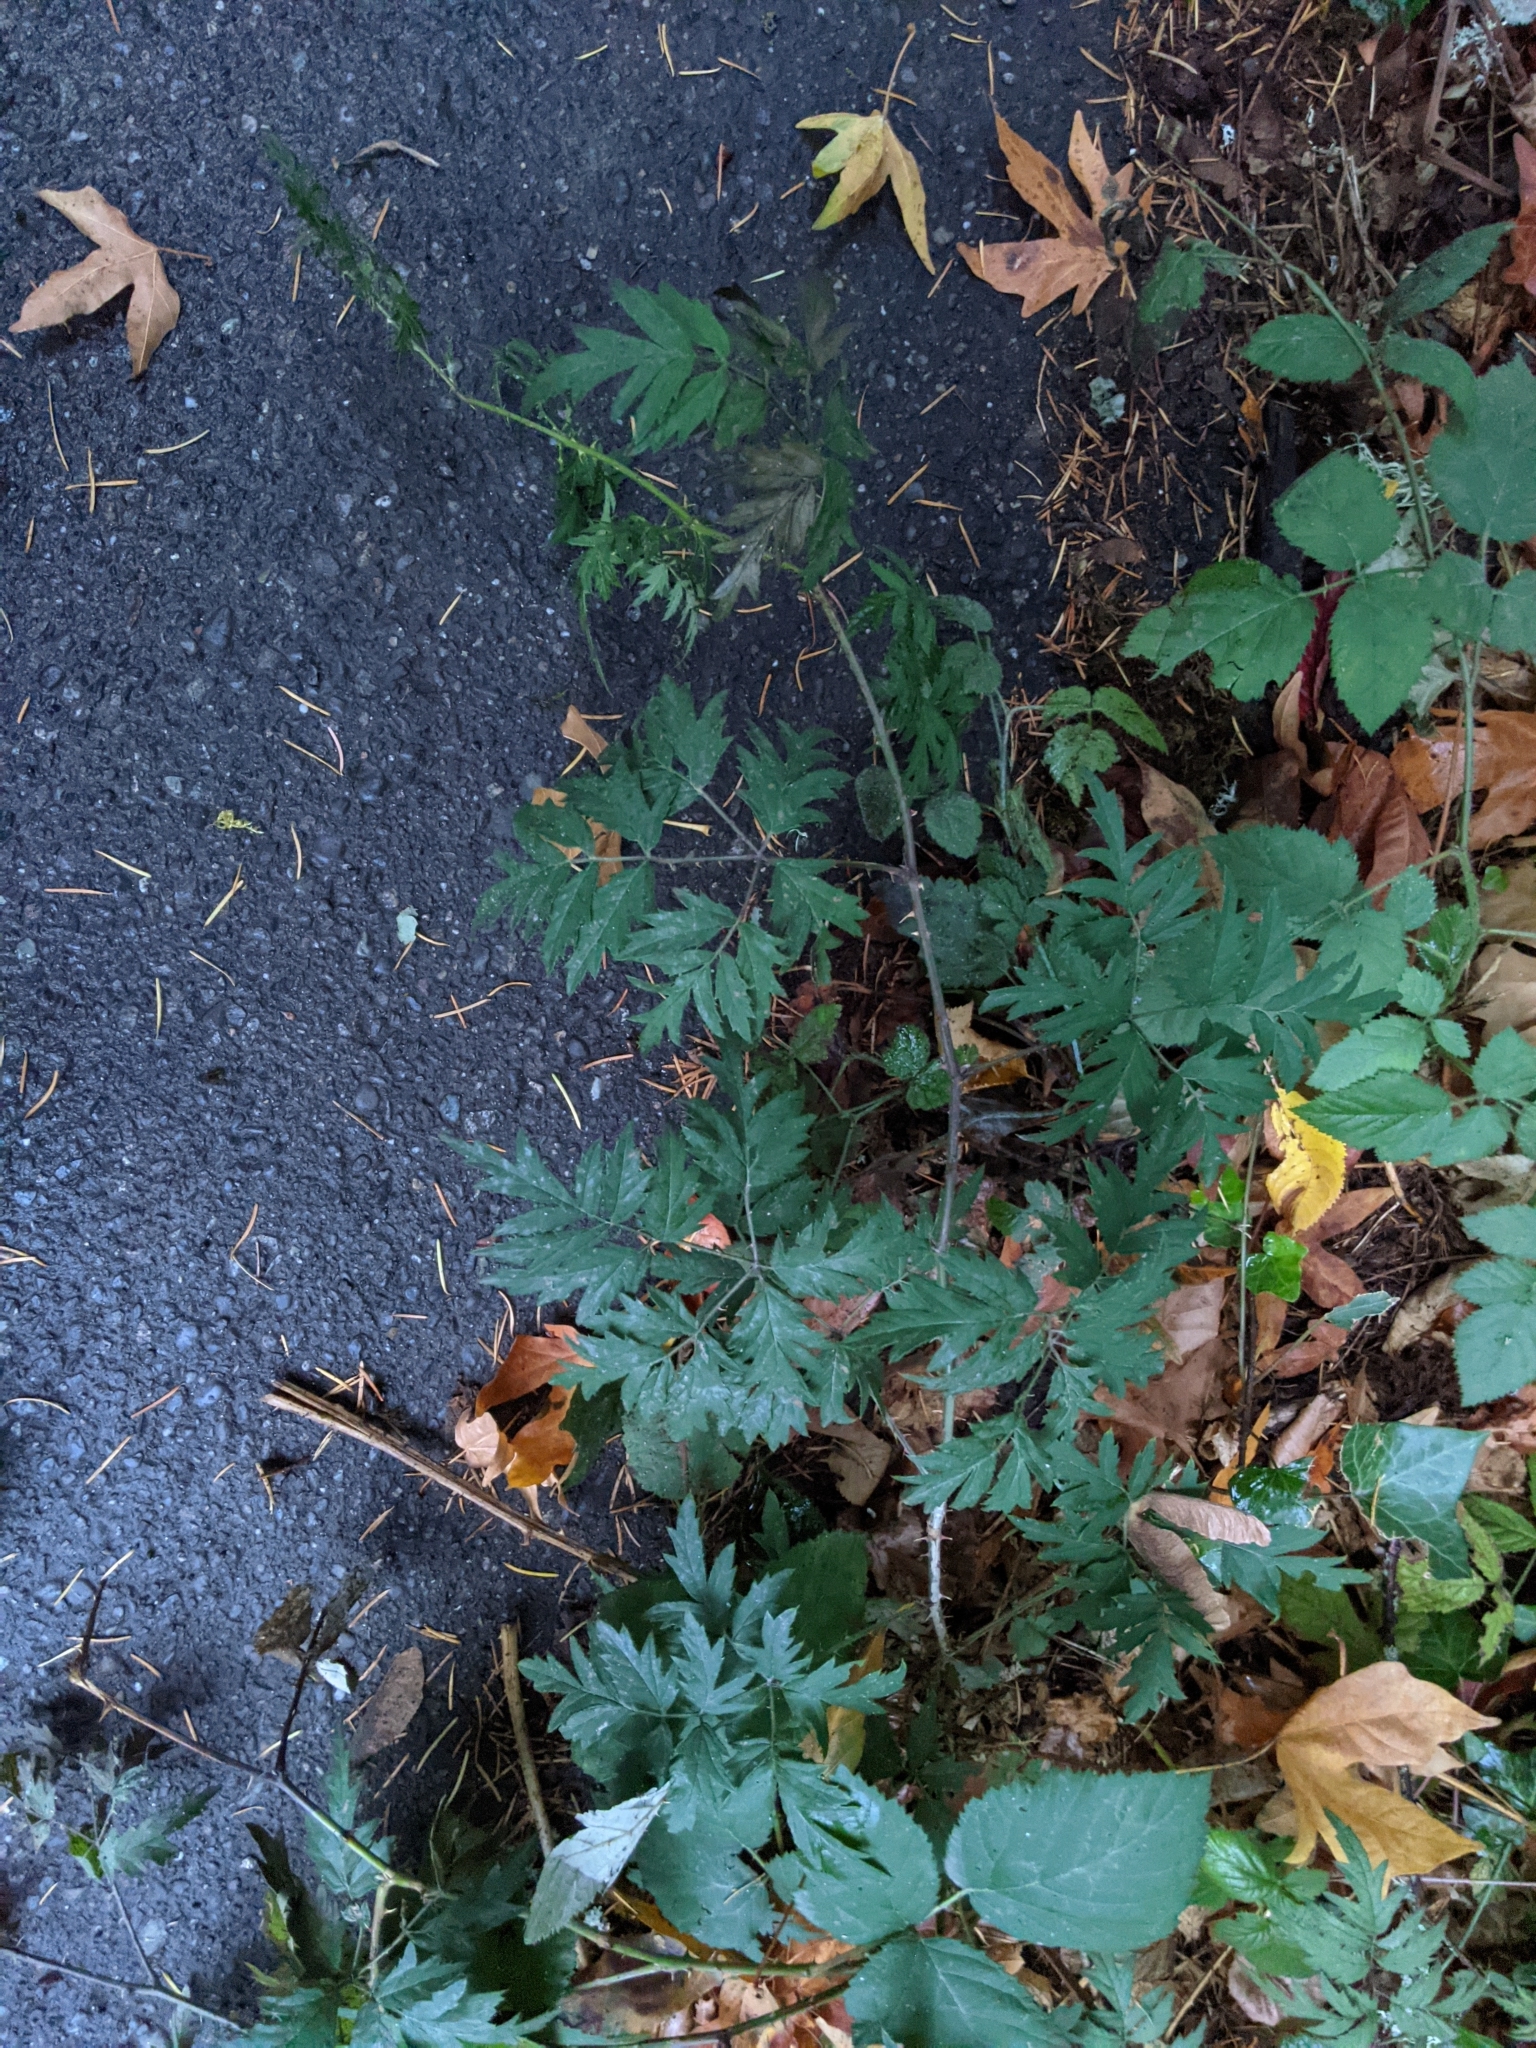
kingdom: Plantae
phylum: Tracheophyta
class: Magnoliopsida
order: Rosales
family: Rosaceae
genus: Rubus
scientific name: Rubus laciniatus
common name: Evergreen blackberry
